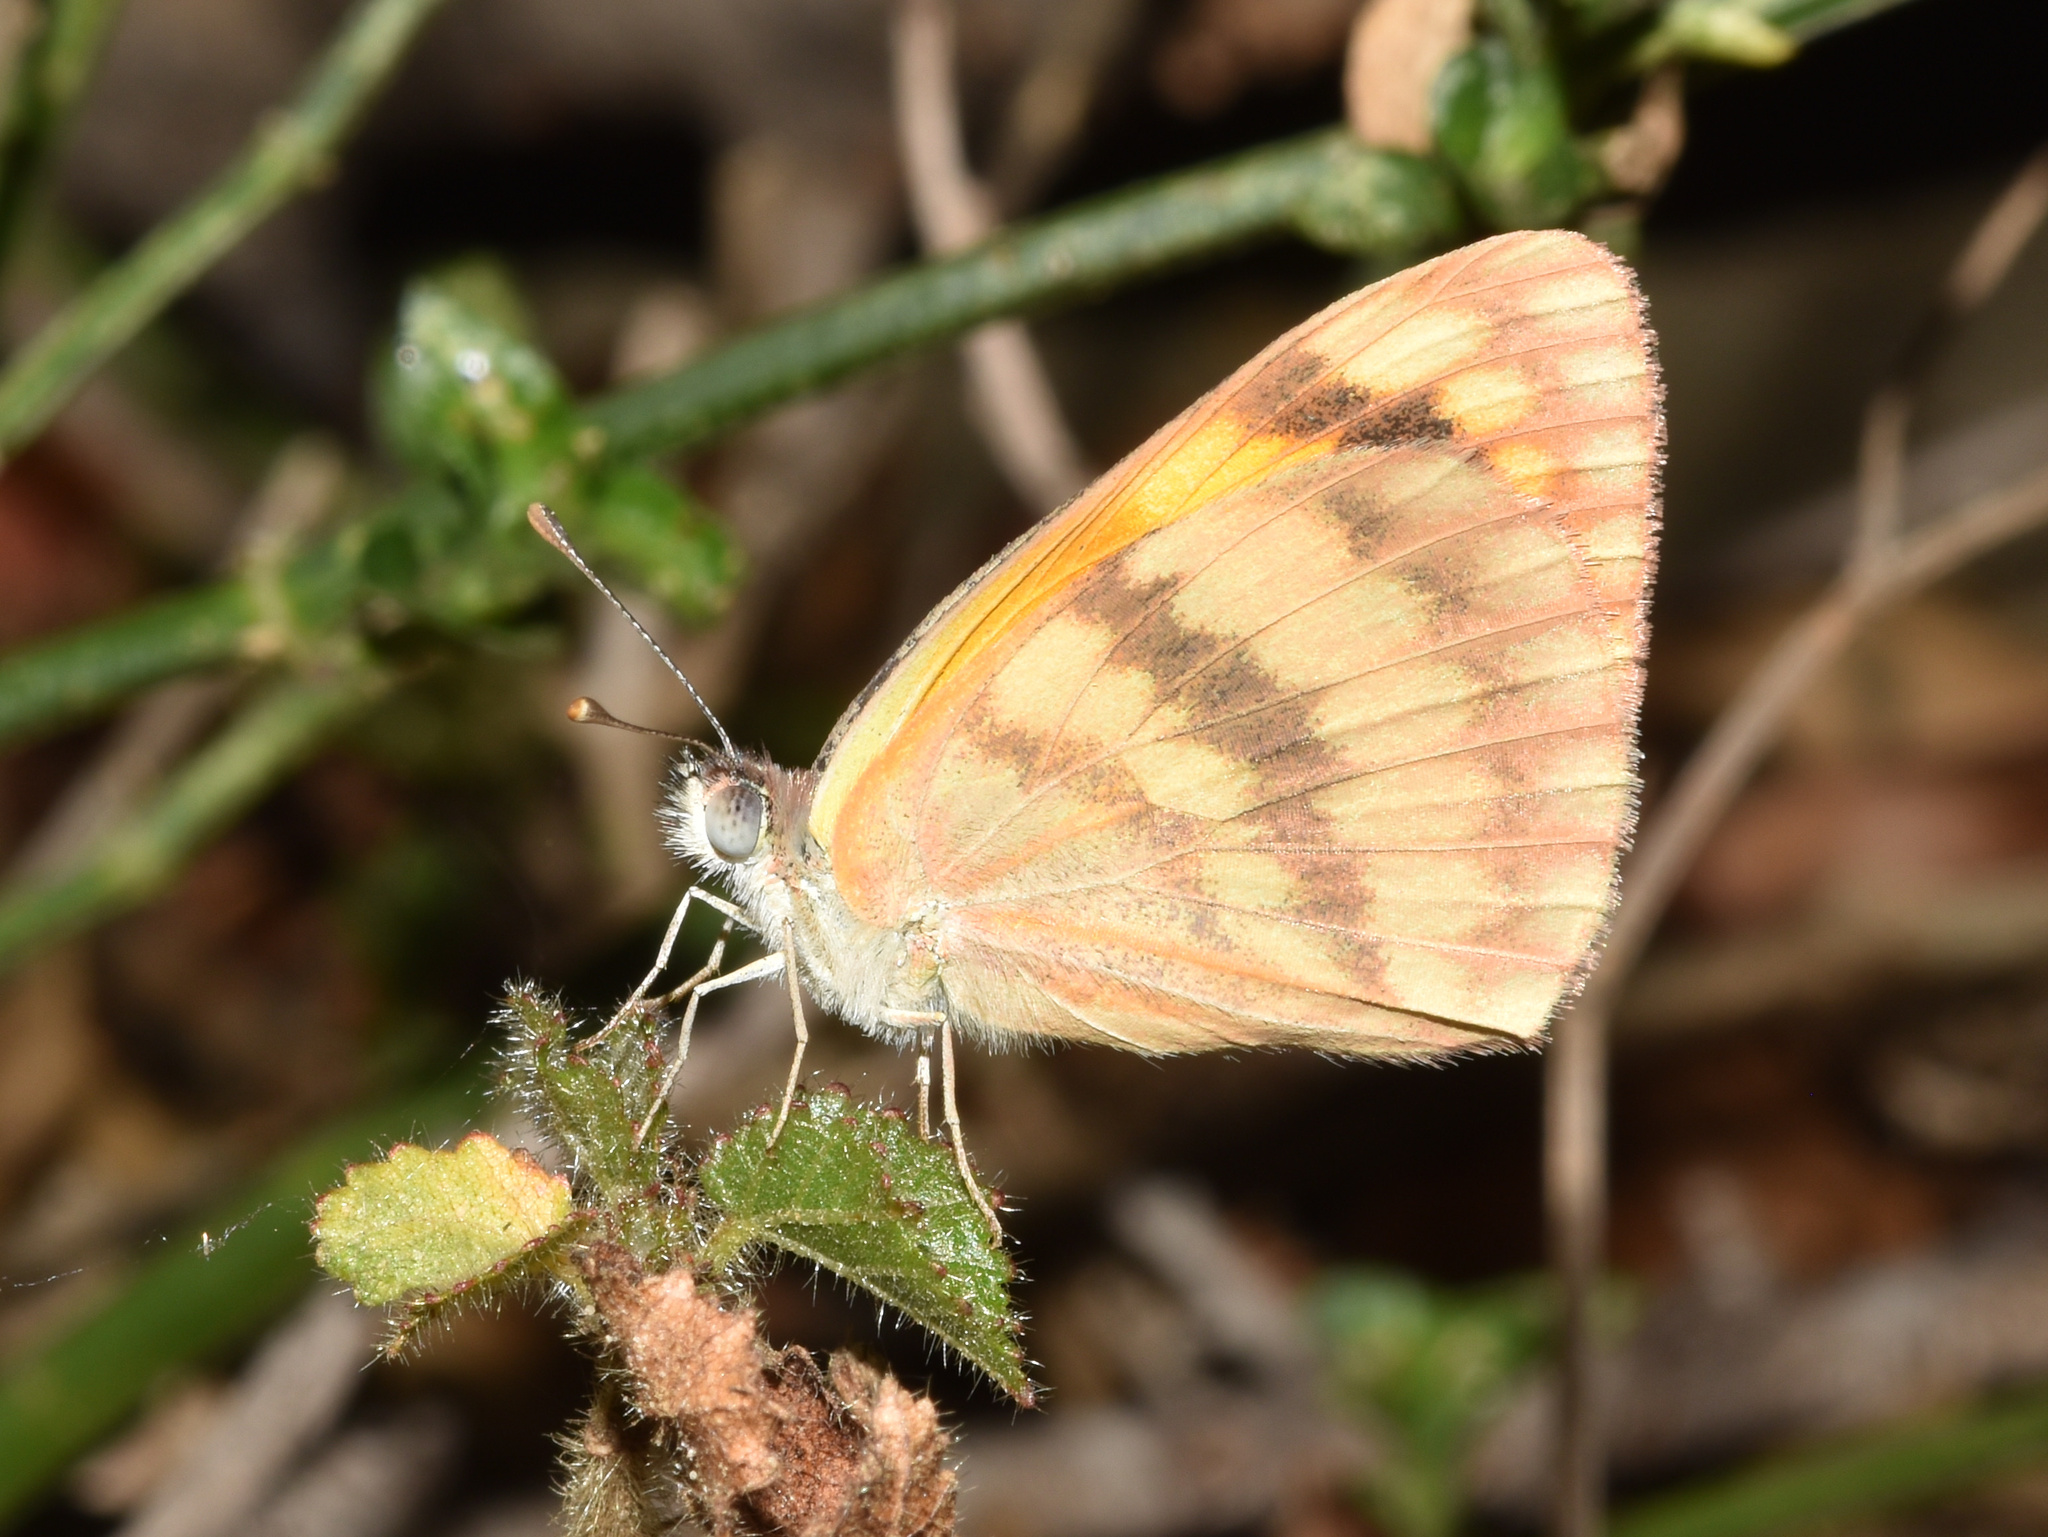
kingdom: Animalia
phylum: Arthropoda
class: Insecta
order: Lepidoptera
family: Pieridae
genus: Colotis
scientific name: Colotis vesta
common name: Veined golden arab
